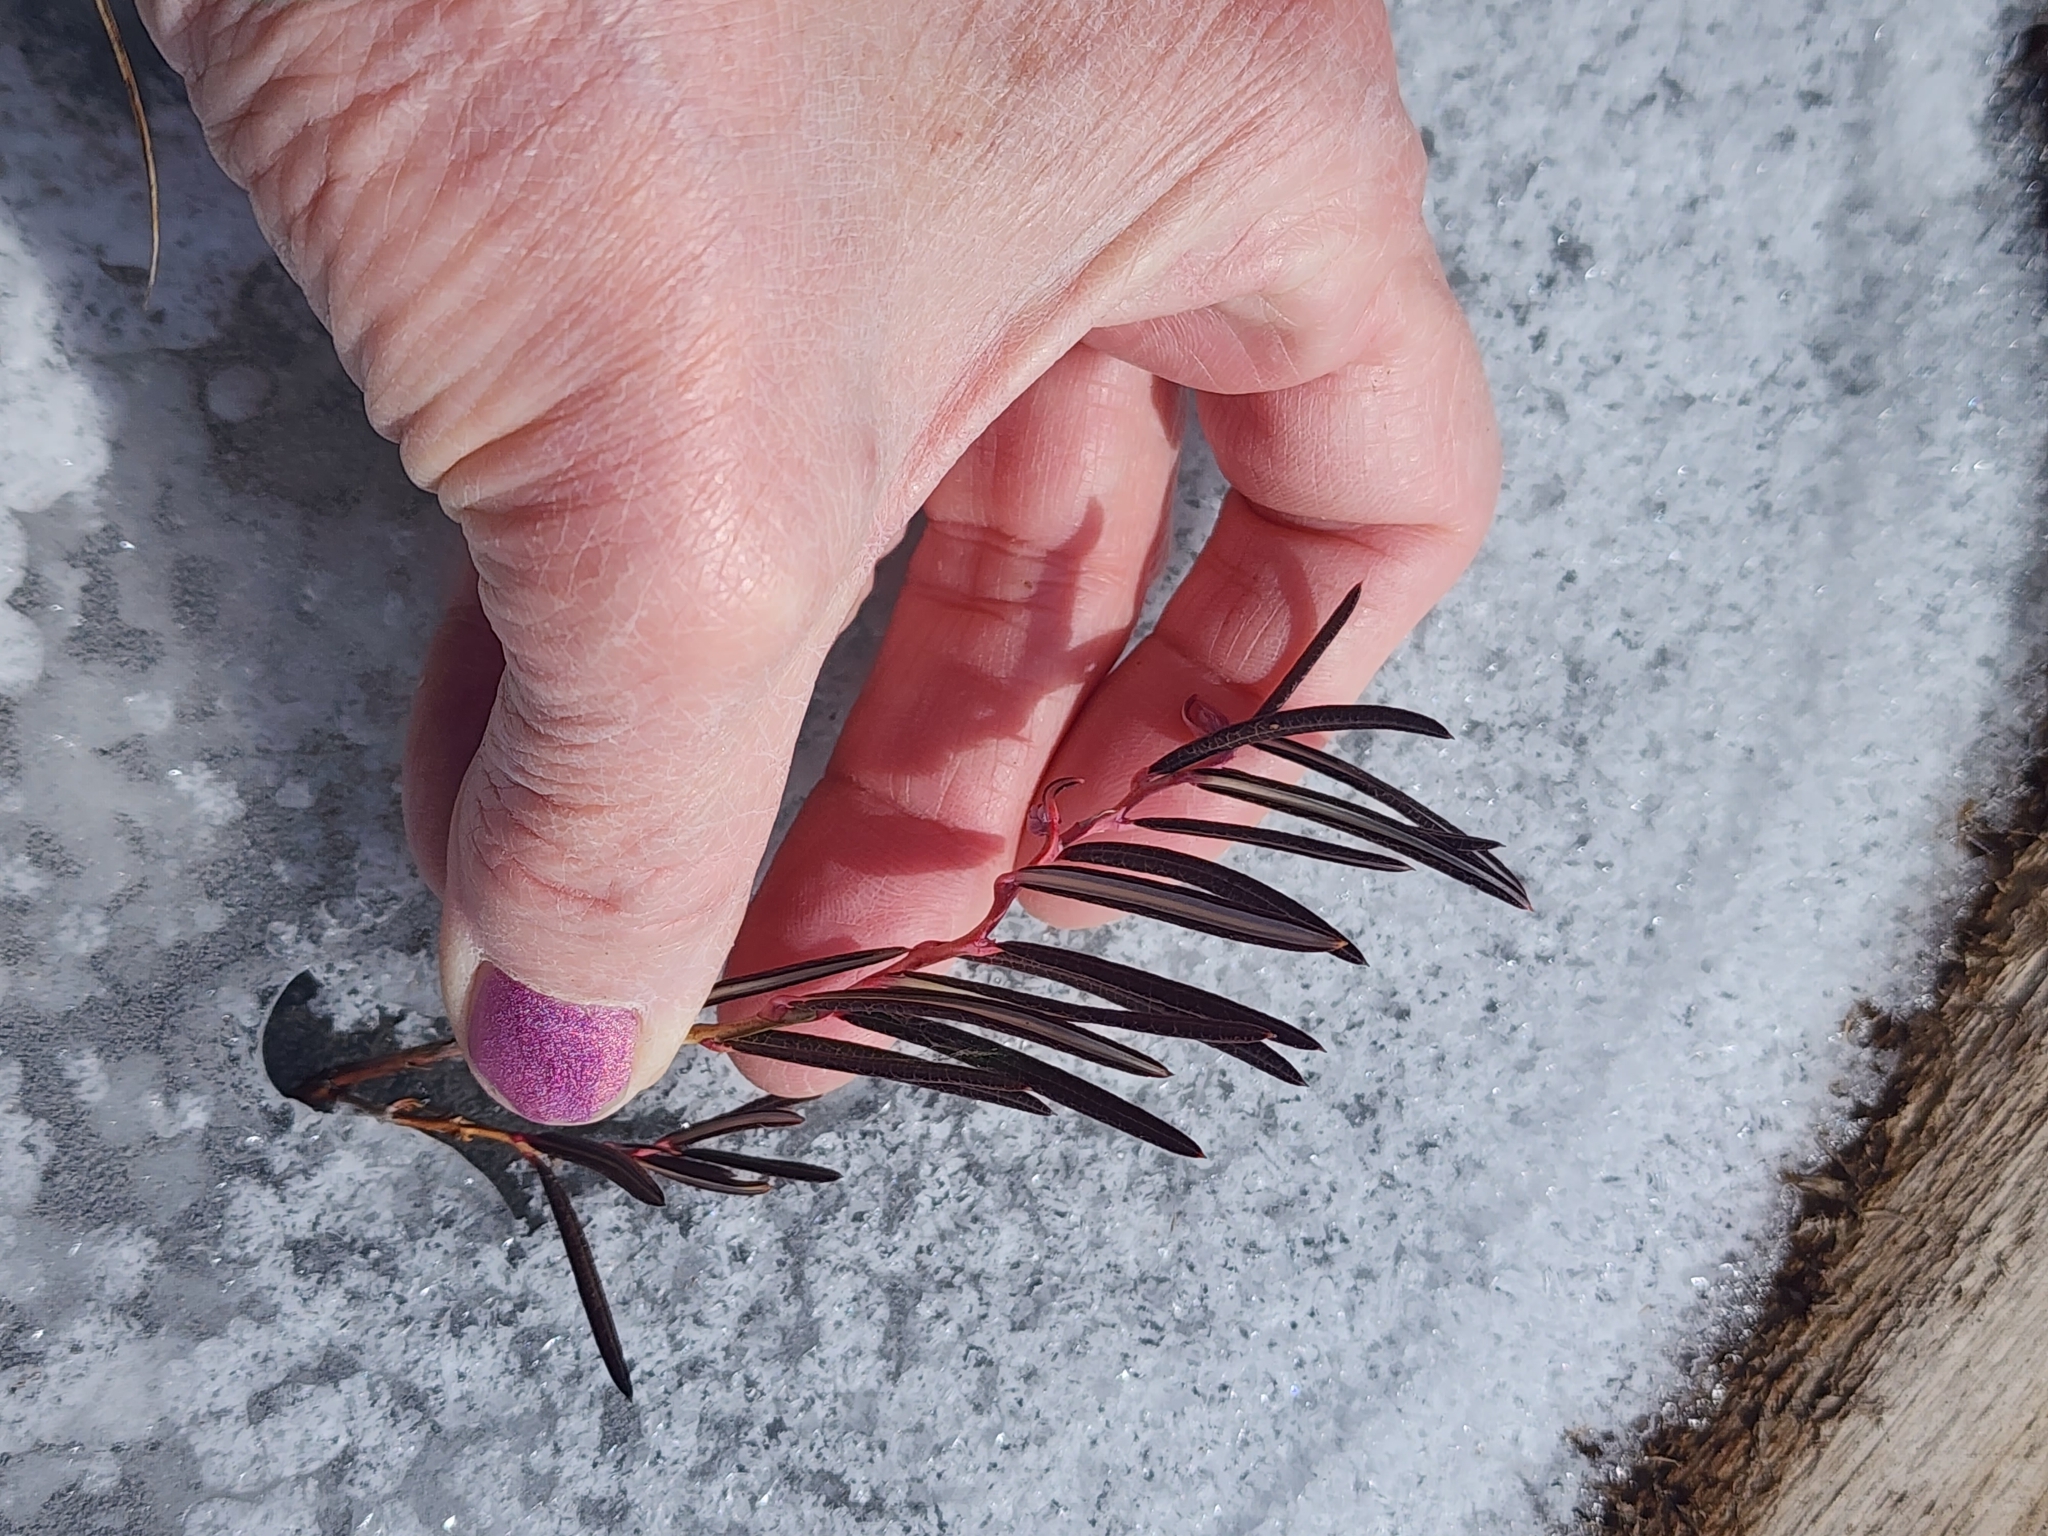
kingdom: Plantae
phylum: Tracheophyta
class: Magnoliopsida
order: Ericales
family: Ericaceae
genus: Andromeda
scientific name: Andromeda polifolia
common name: Bog-rosemary
